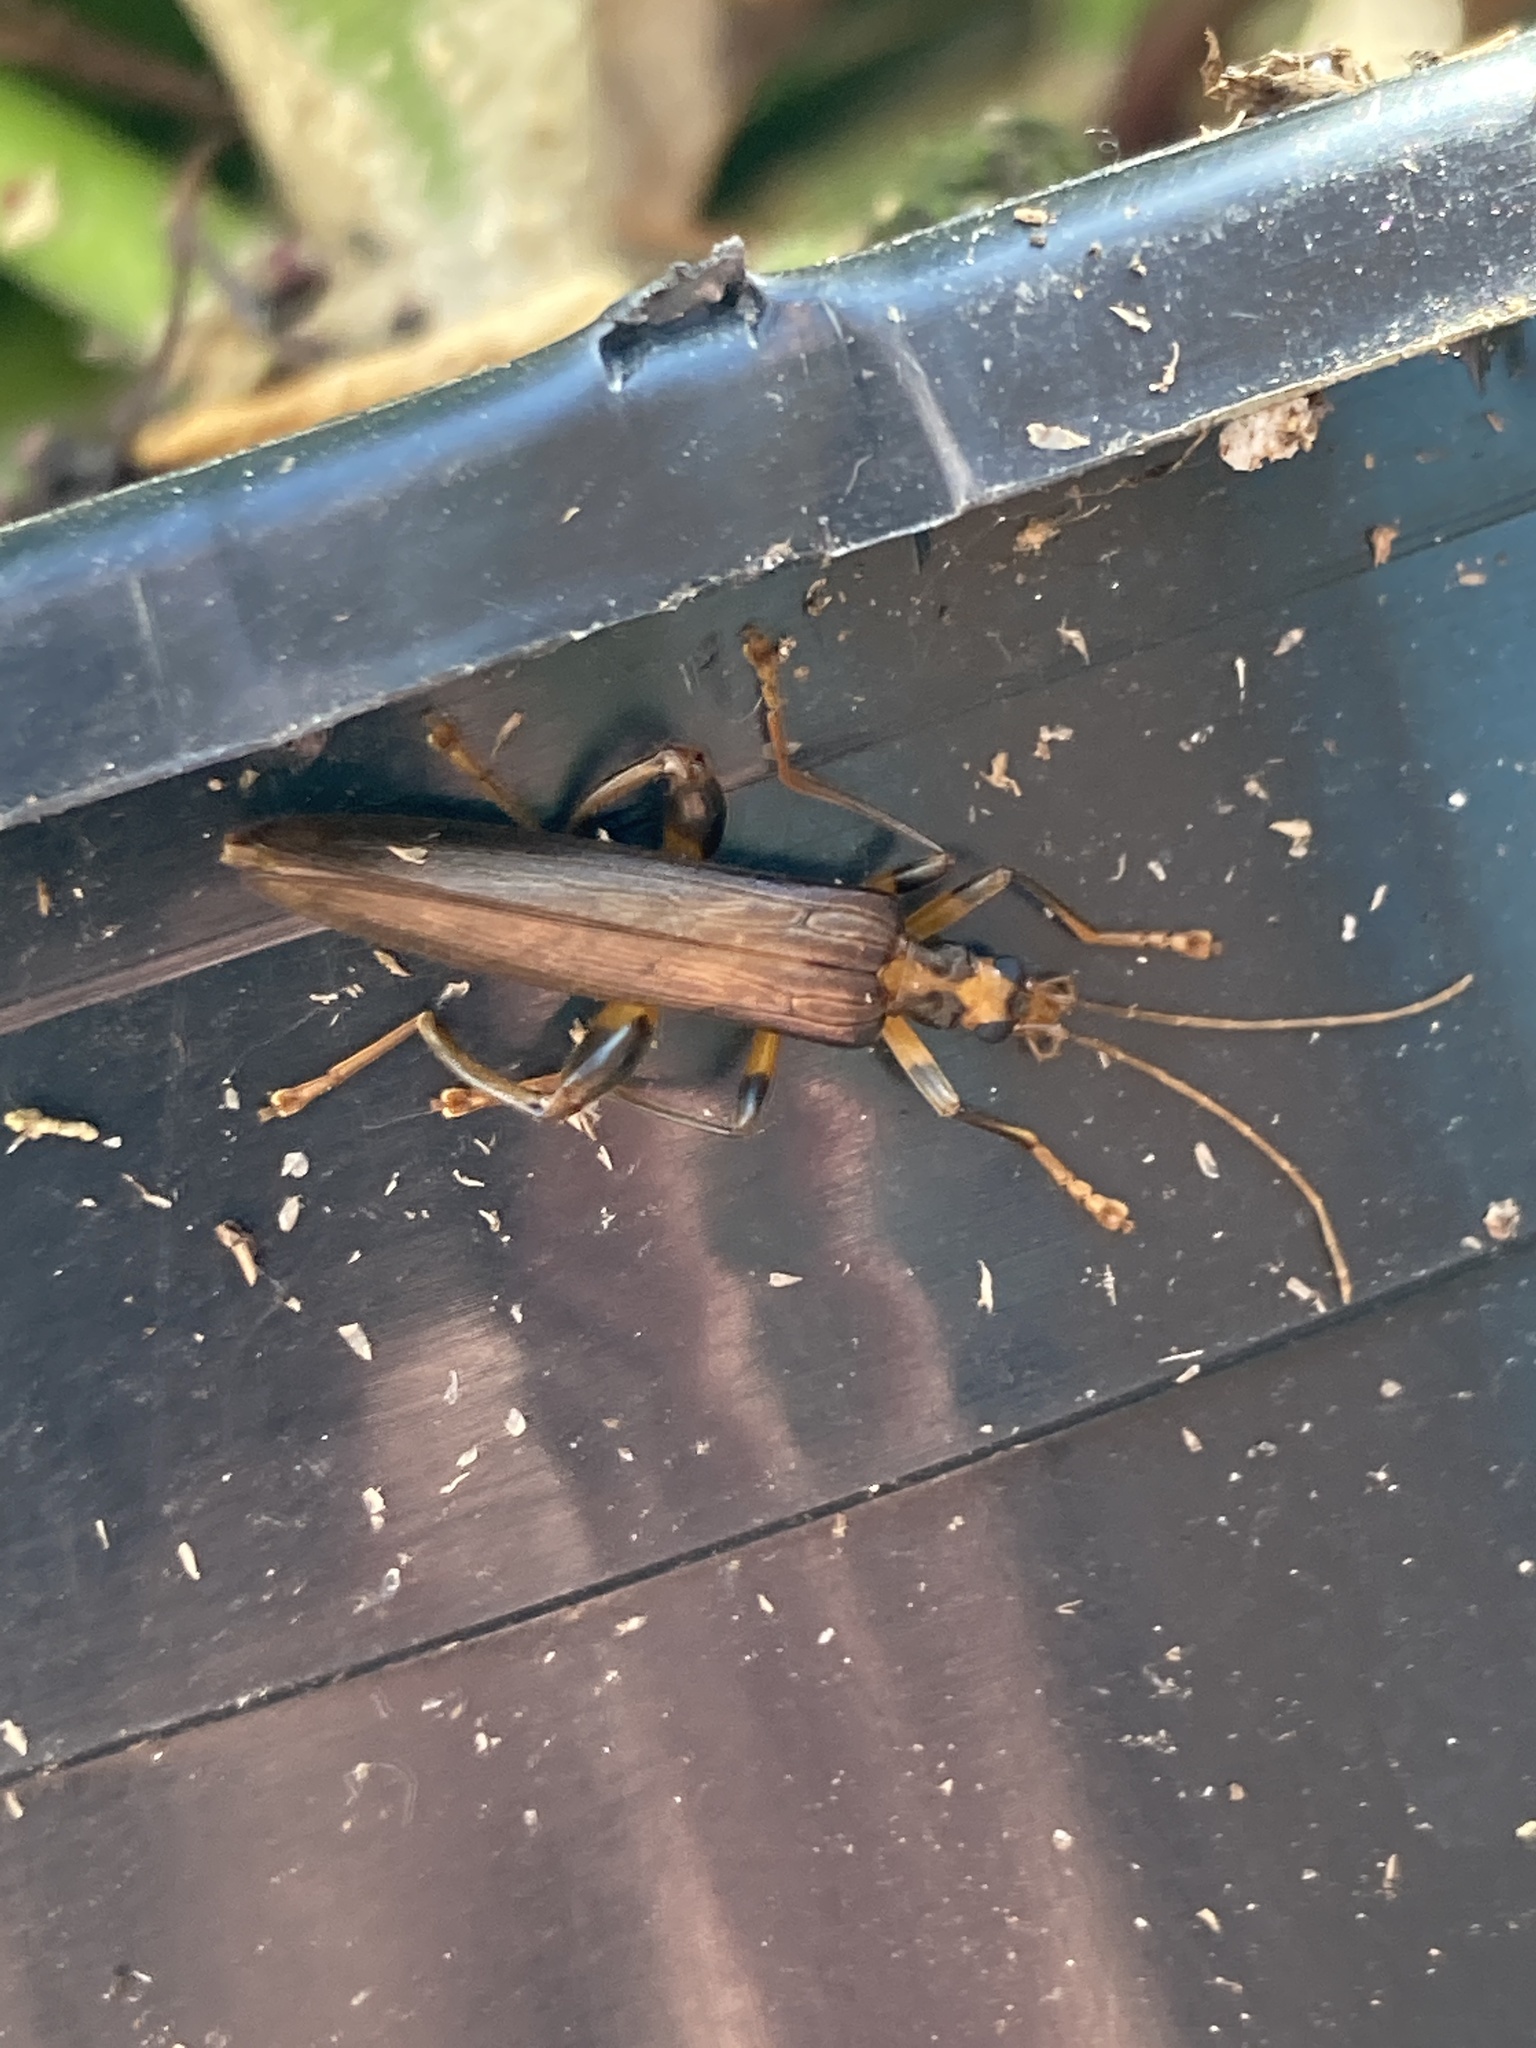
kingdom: Animalia
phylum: Arthropoda
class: Insecta
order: Coleoptera
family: Oedemeridae
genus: Oedemera
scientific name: Oedemera femoralis
